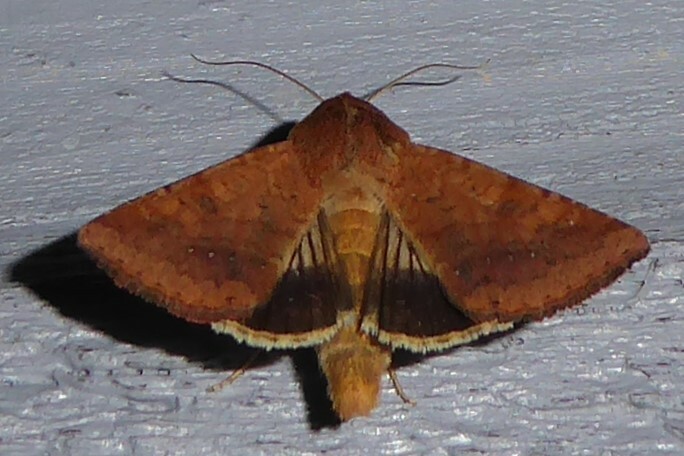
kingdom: Animalia
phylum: Arthropoda
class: Insecta
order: Lepidoptera
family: Noctuidae
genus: Helicoverpa
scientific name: Helicoverpa punctigera
